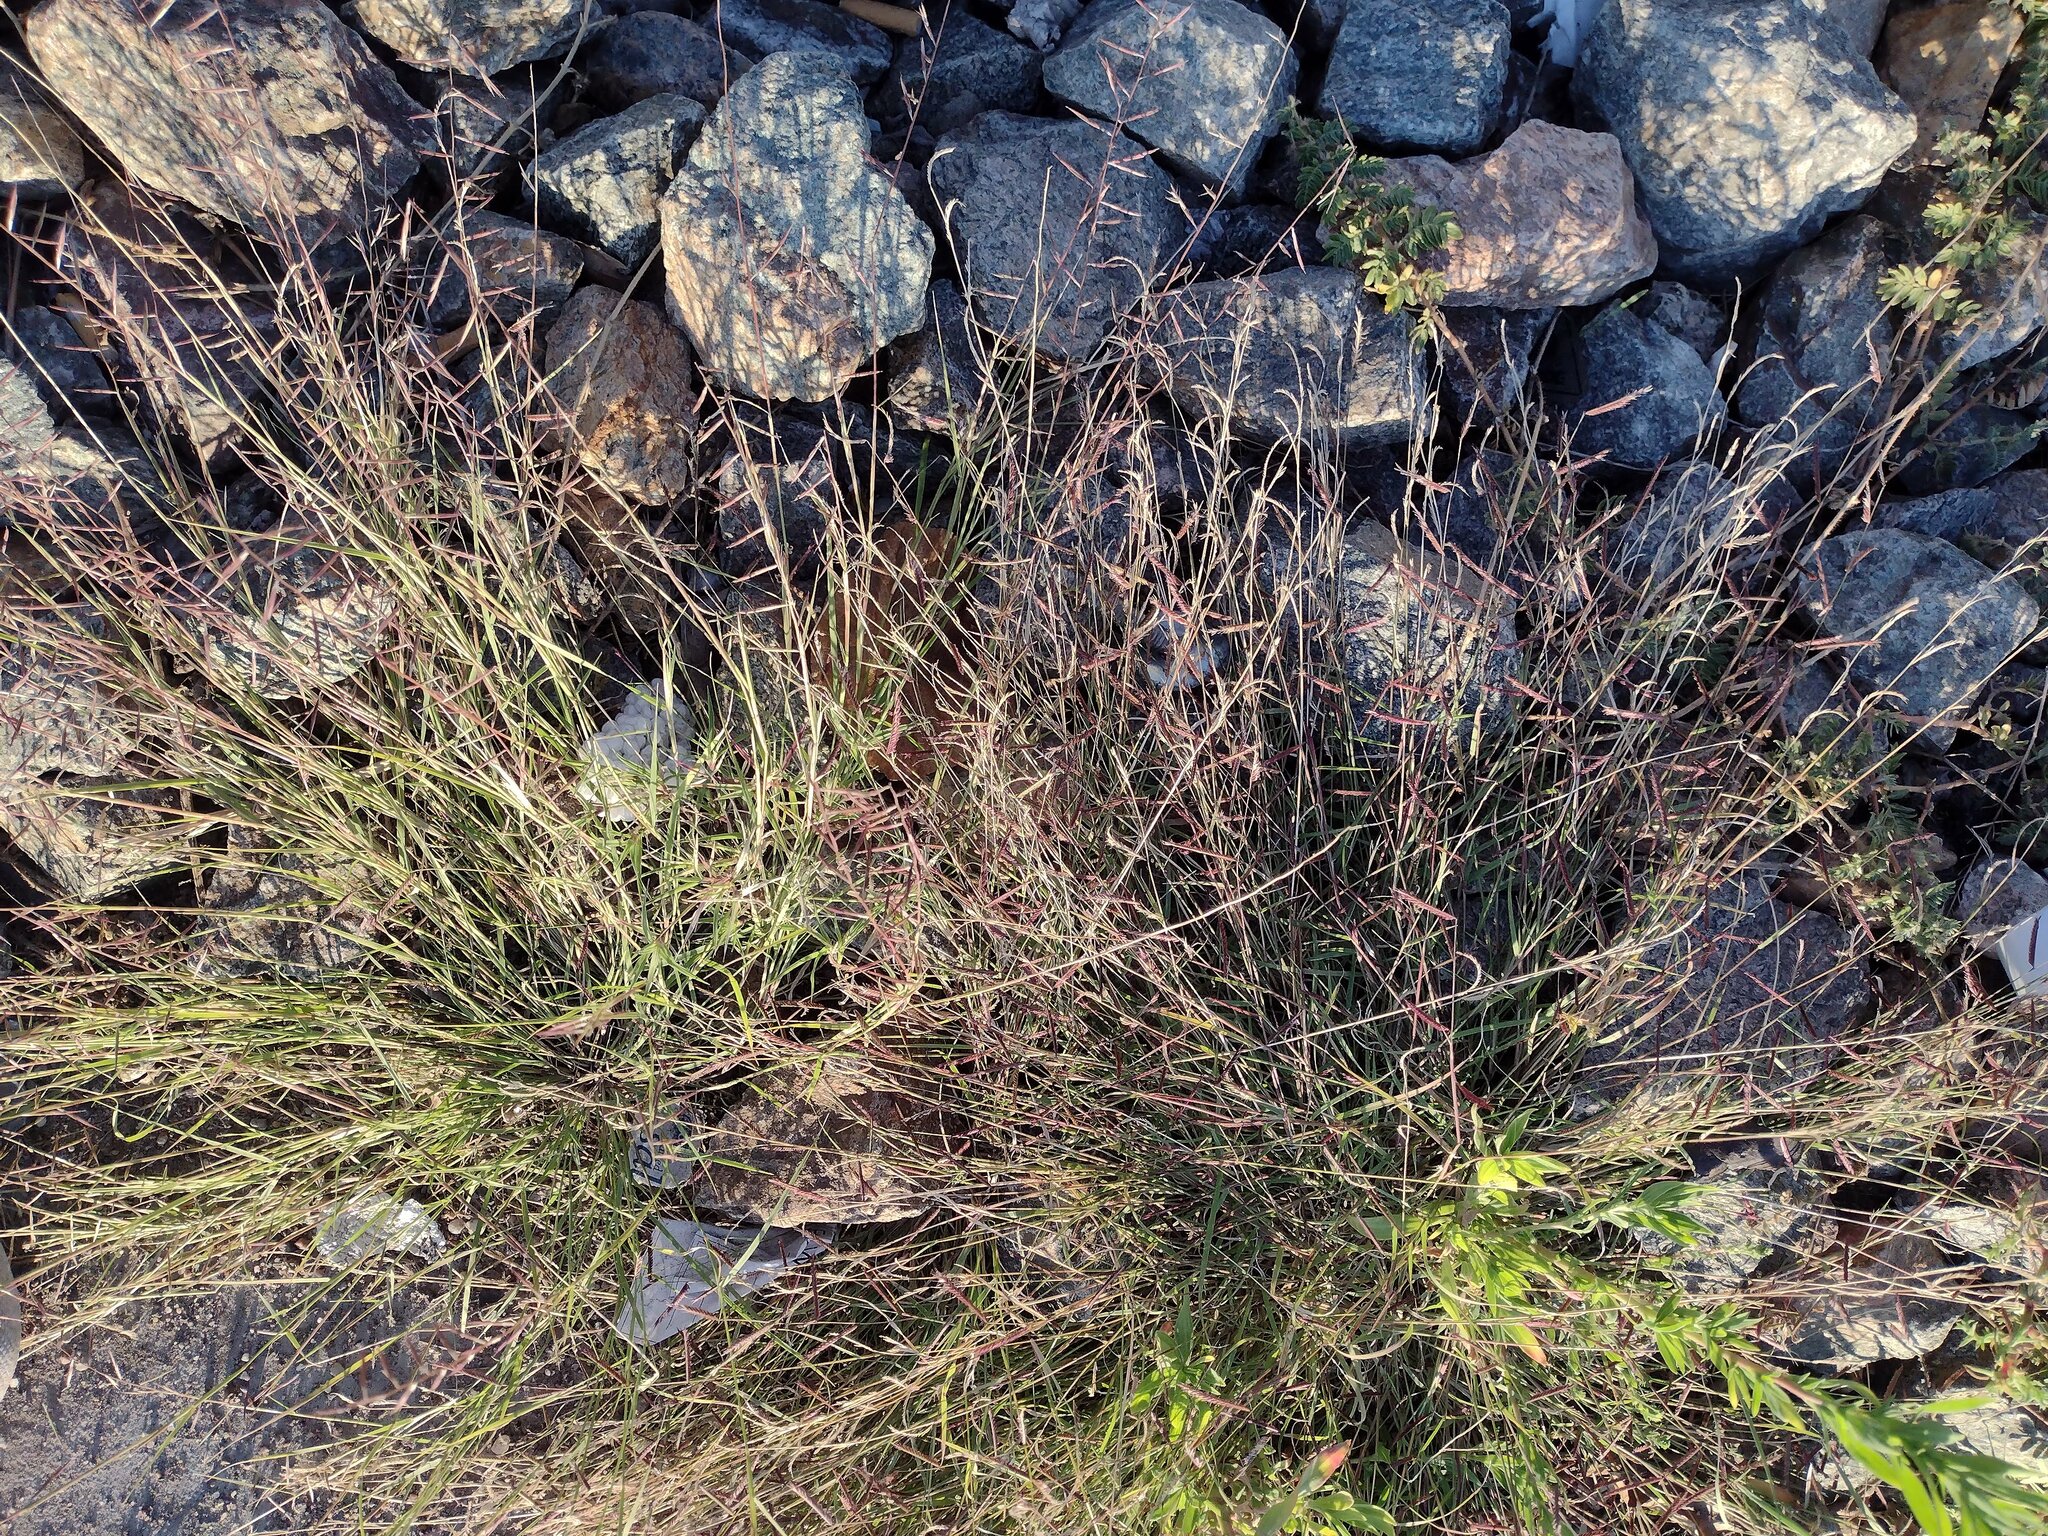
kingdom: Plantae
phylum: Tracheophyta
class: Liliopsida
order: Poales
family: Poaceae
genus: Bouteloua
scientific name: Bouteloua aristidoides
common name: Needle grama
